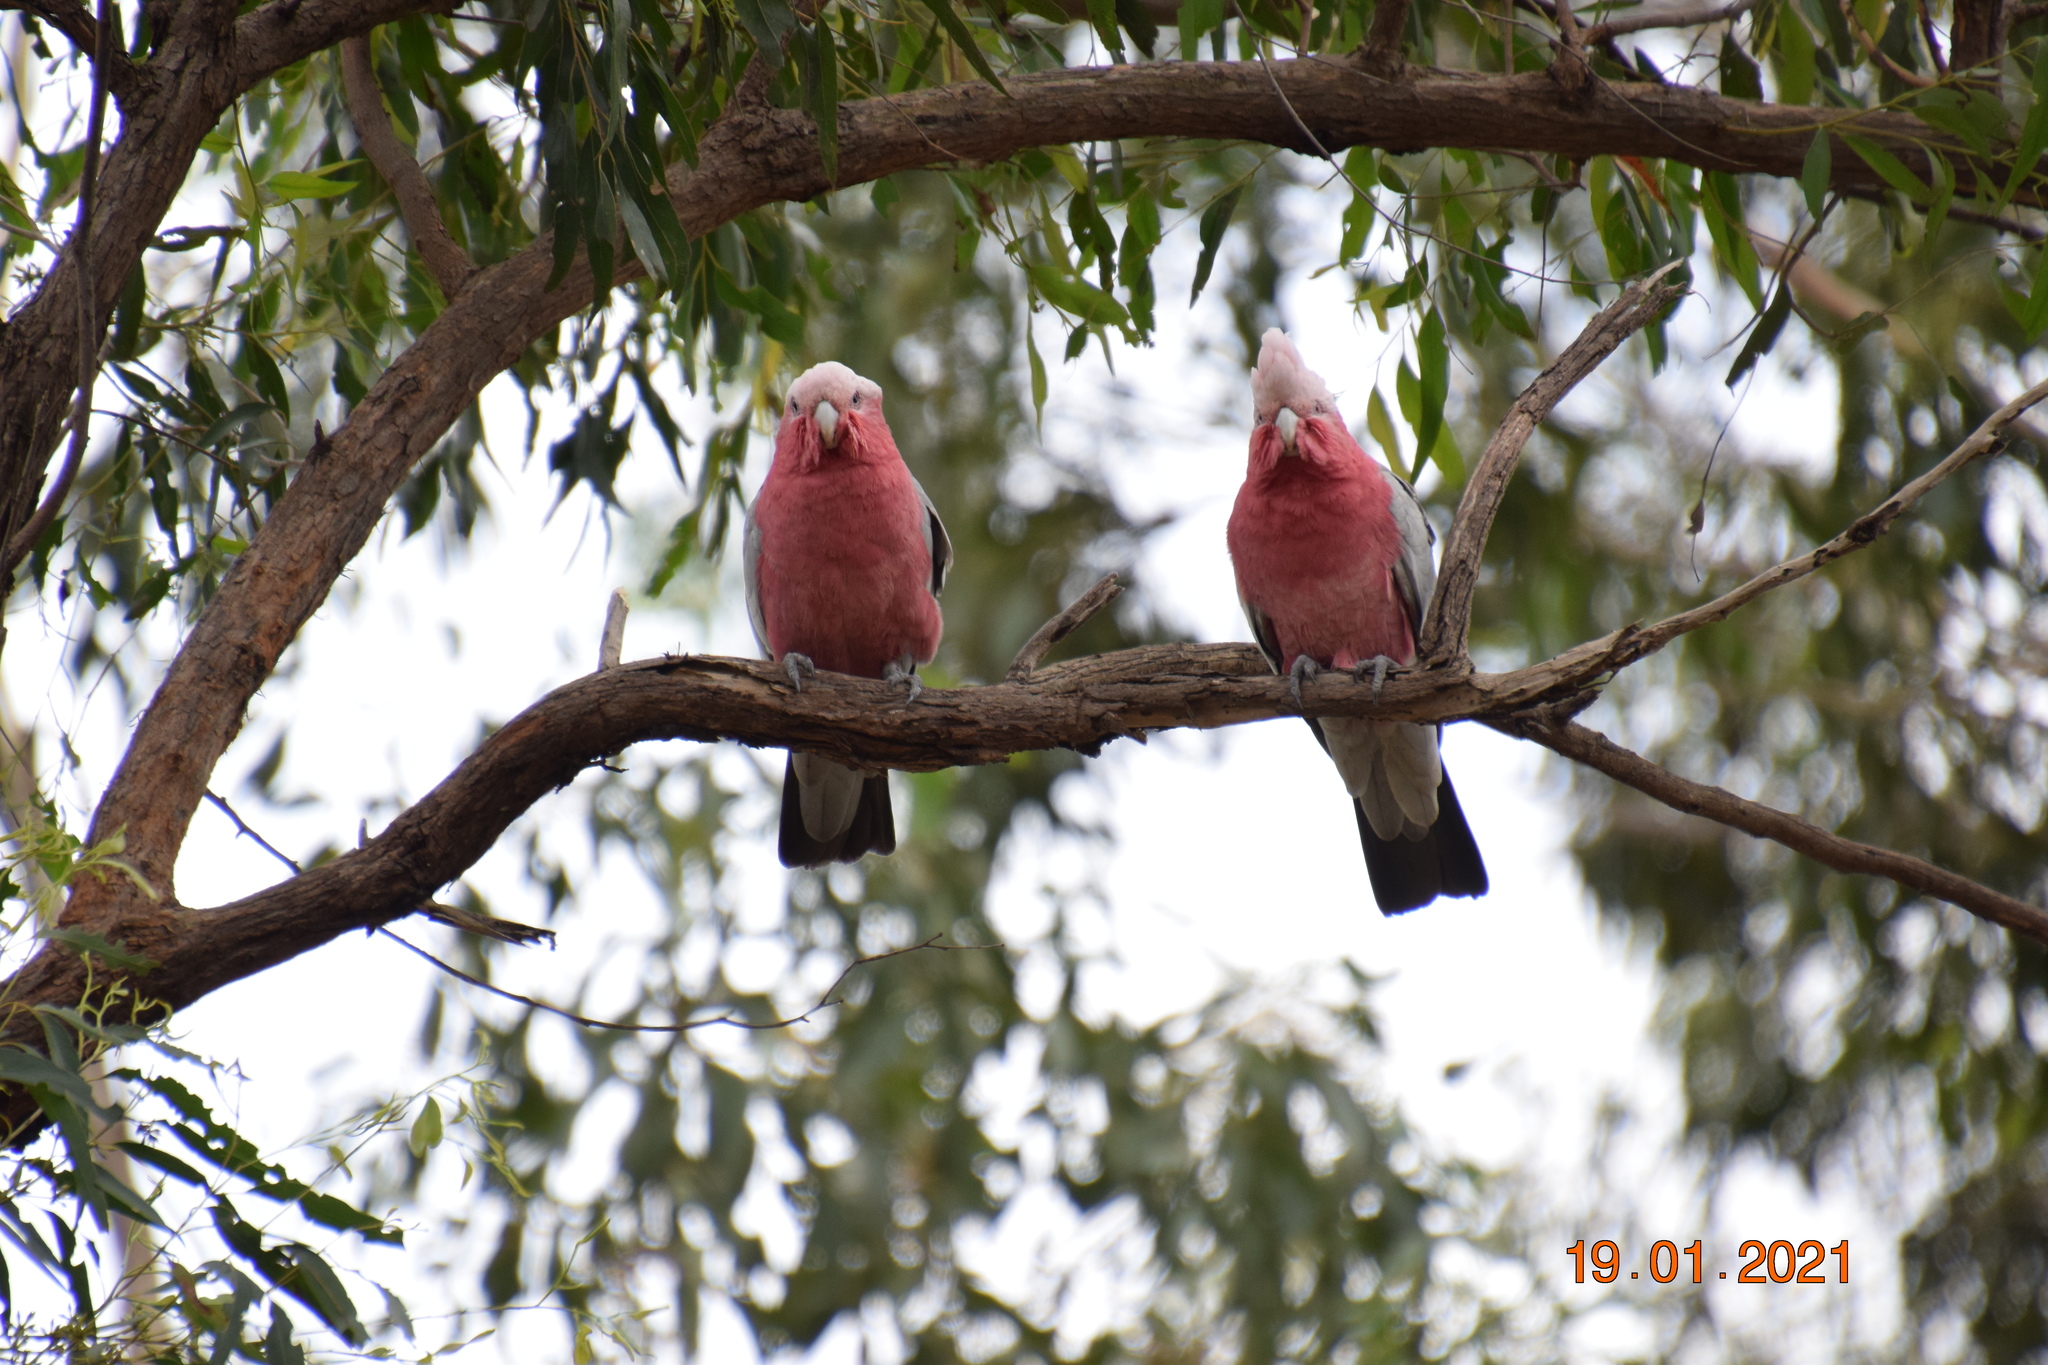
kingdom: Animalia
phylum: Chordata
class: Aves
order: Psittaciformes
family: Psittacidae
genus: Eolophus
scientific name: Eolophus roseicapilla
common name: Galah
